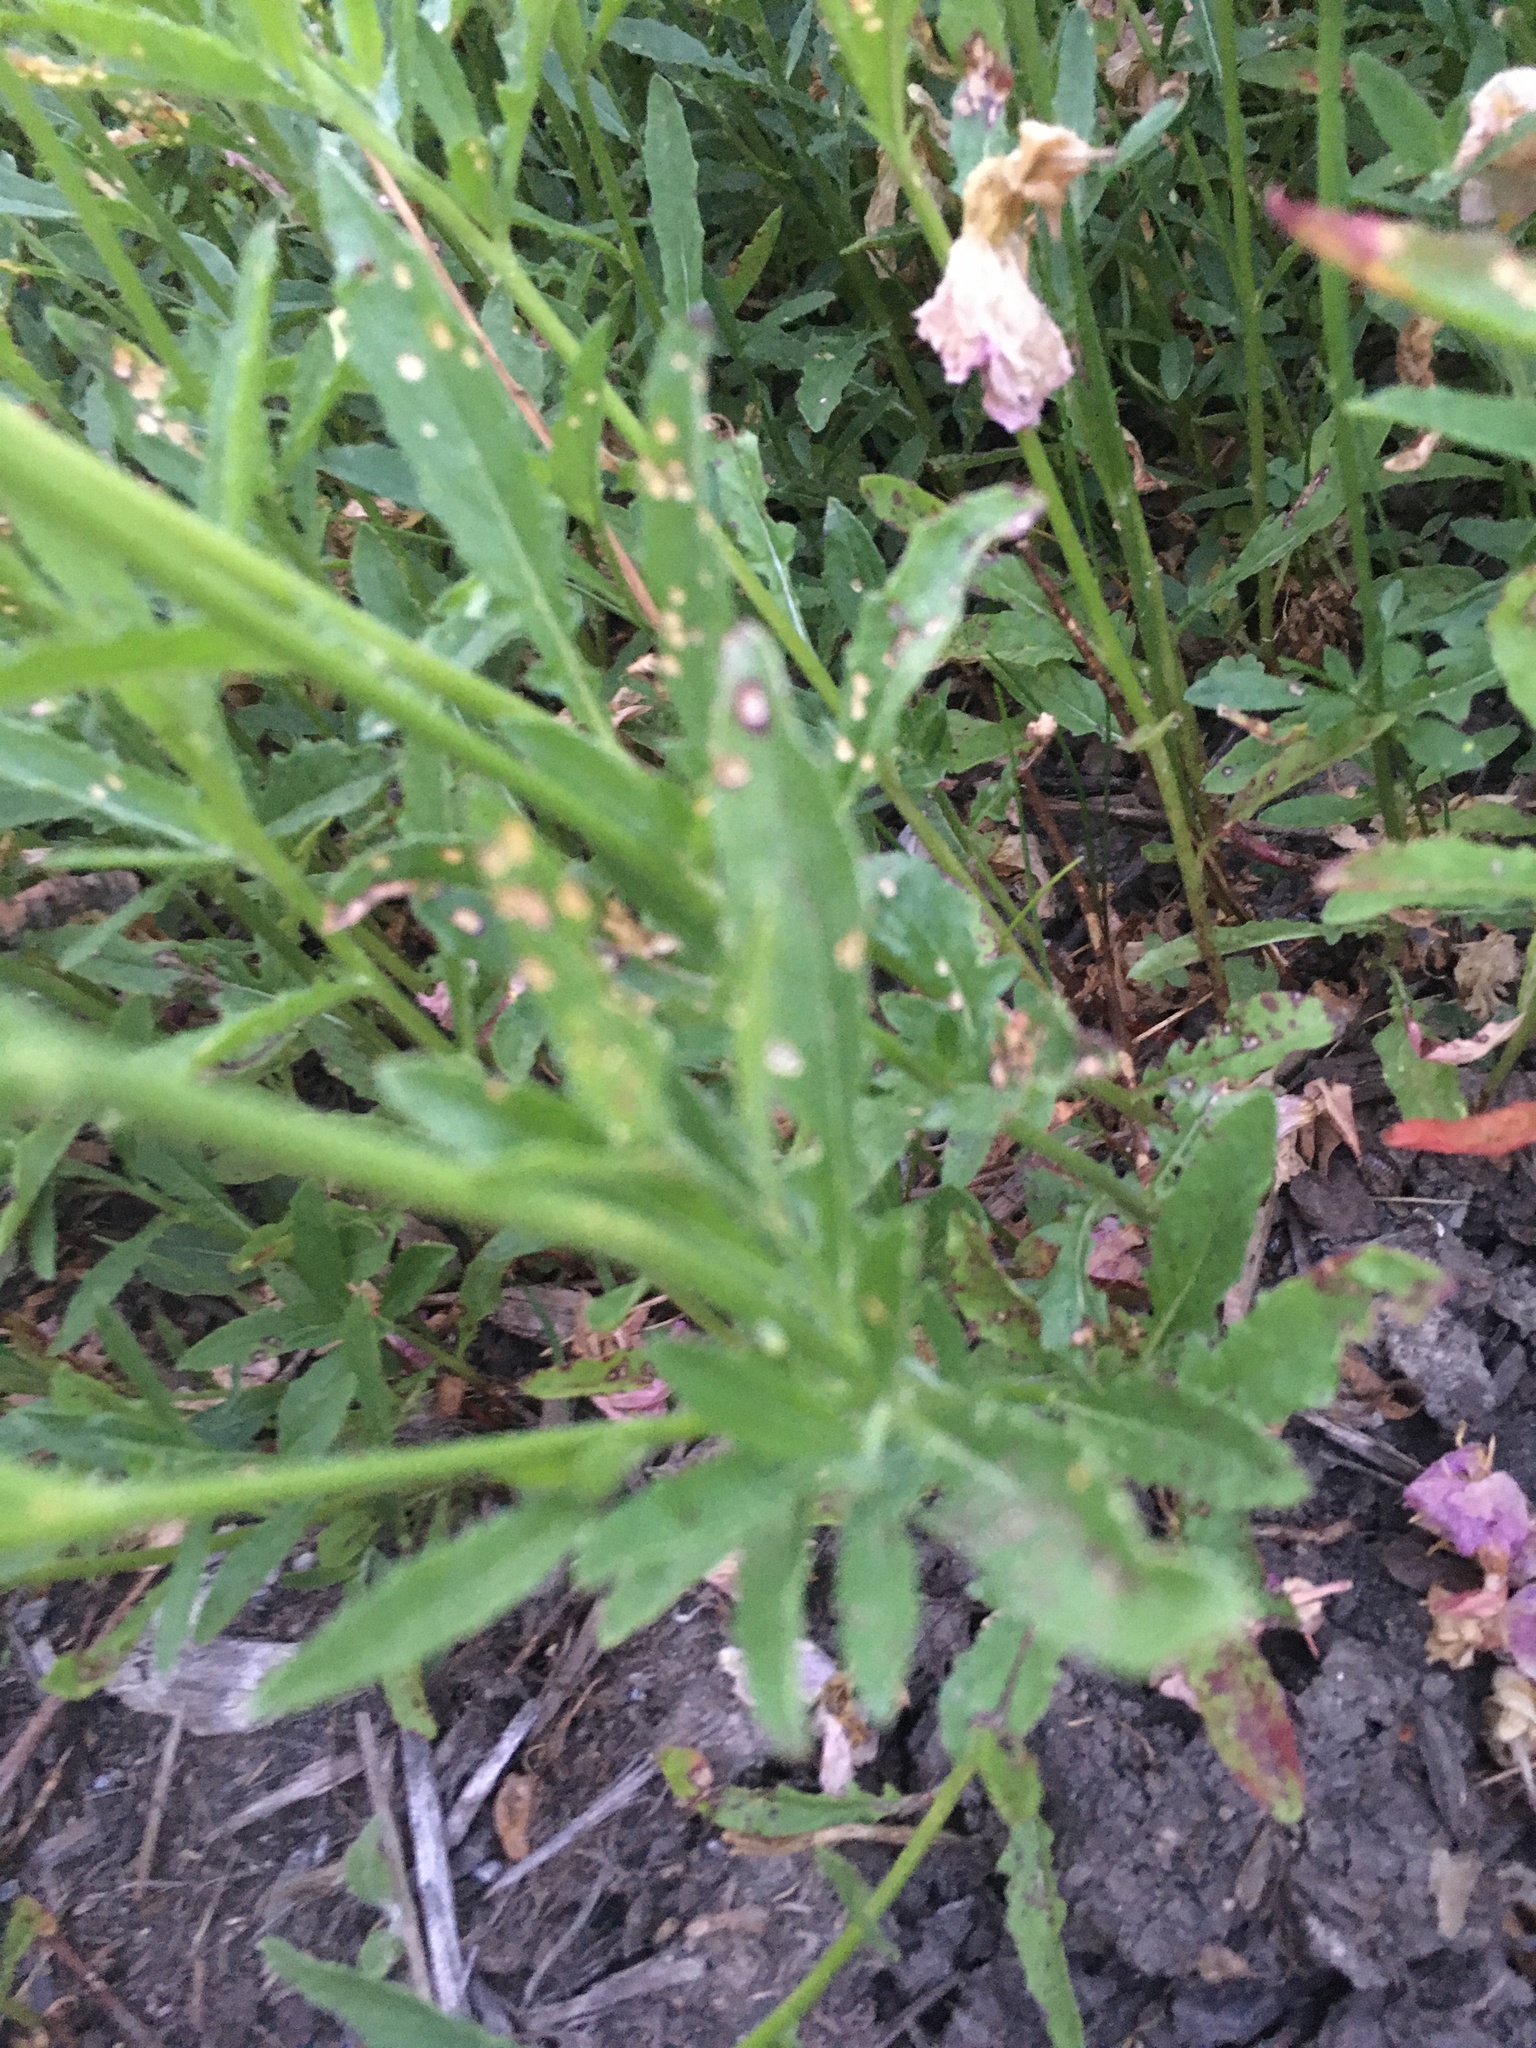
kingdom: Plantae
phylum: Tracheophyta
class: Magnoliopsida
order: Myrtales
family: Onagraceae
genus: Oenothera
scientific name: Oenothera speciosa
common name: White evening-primrose
